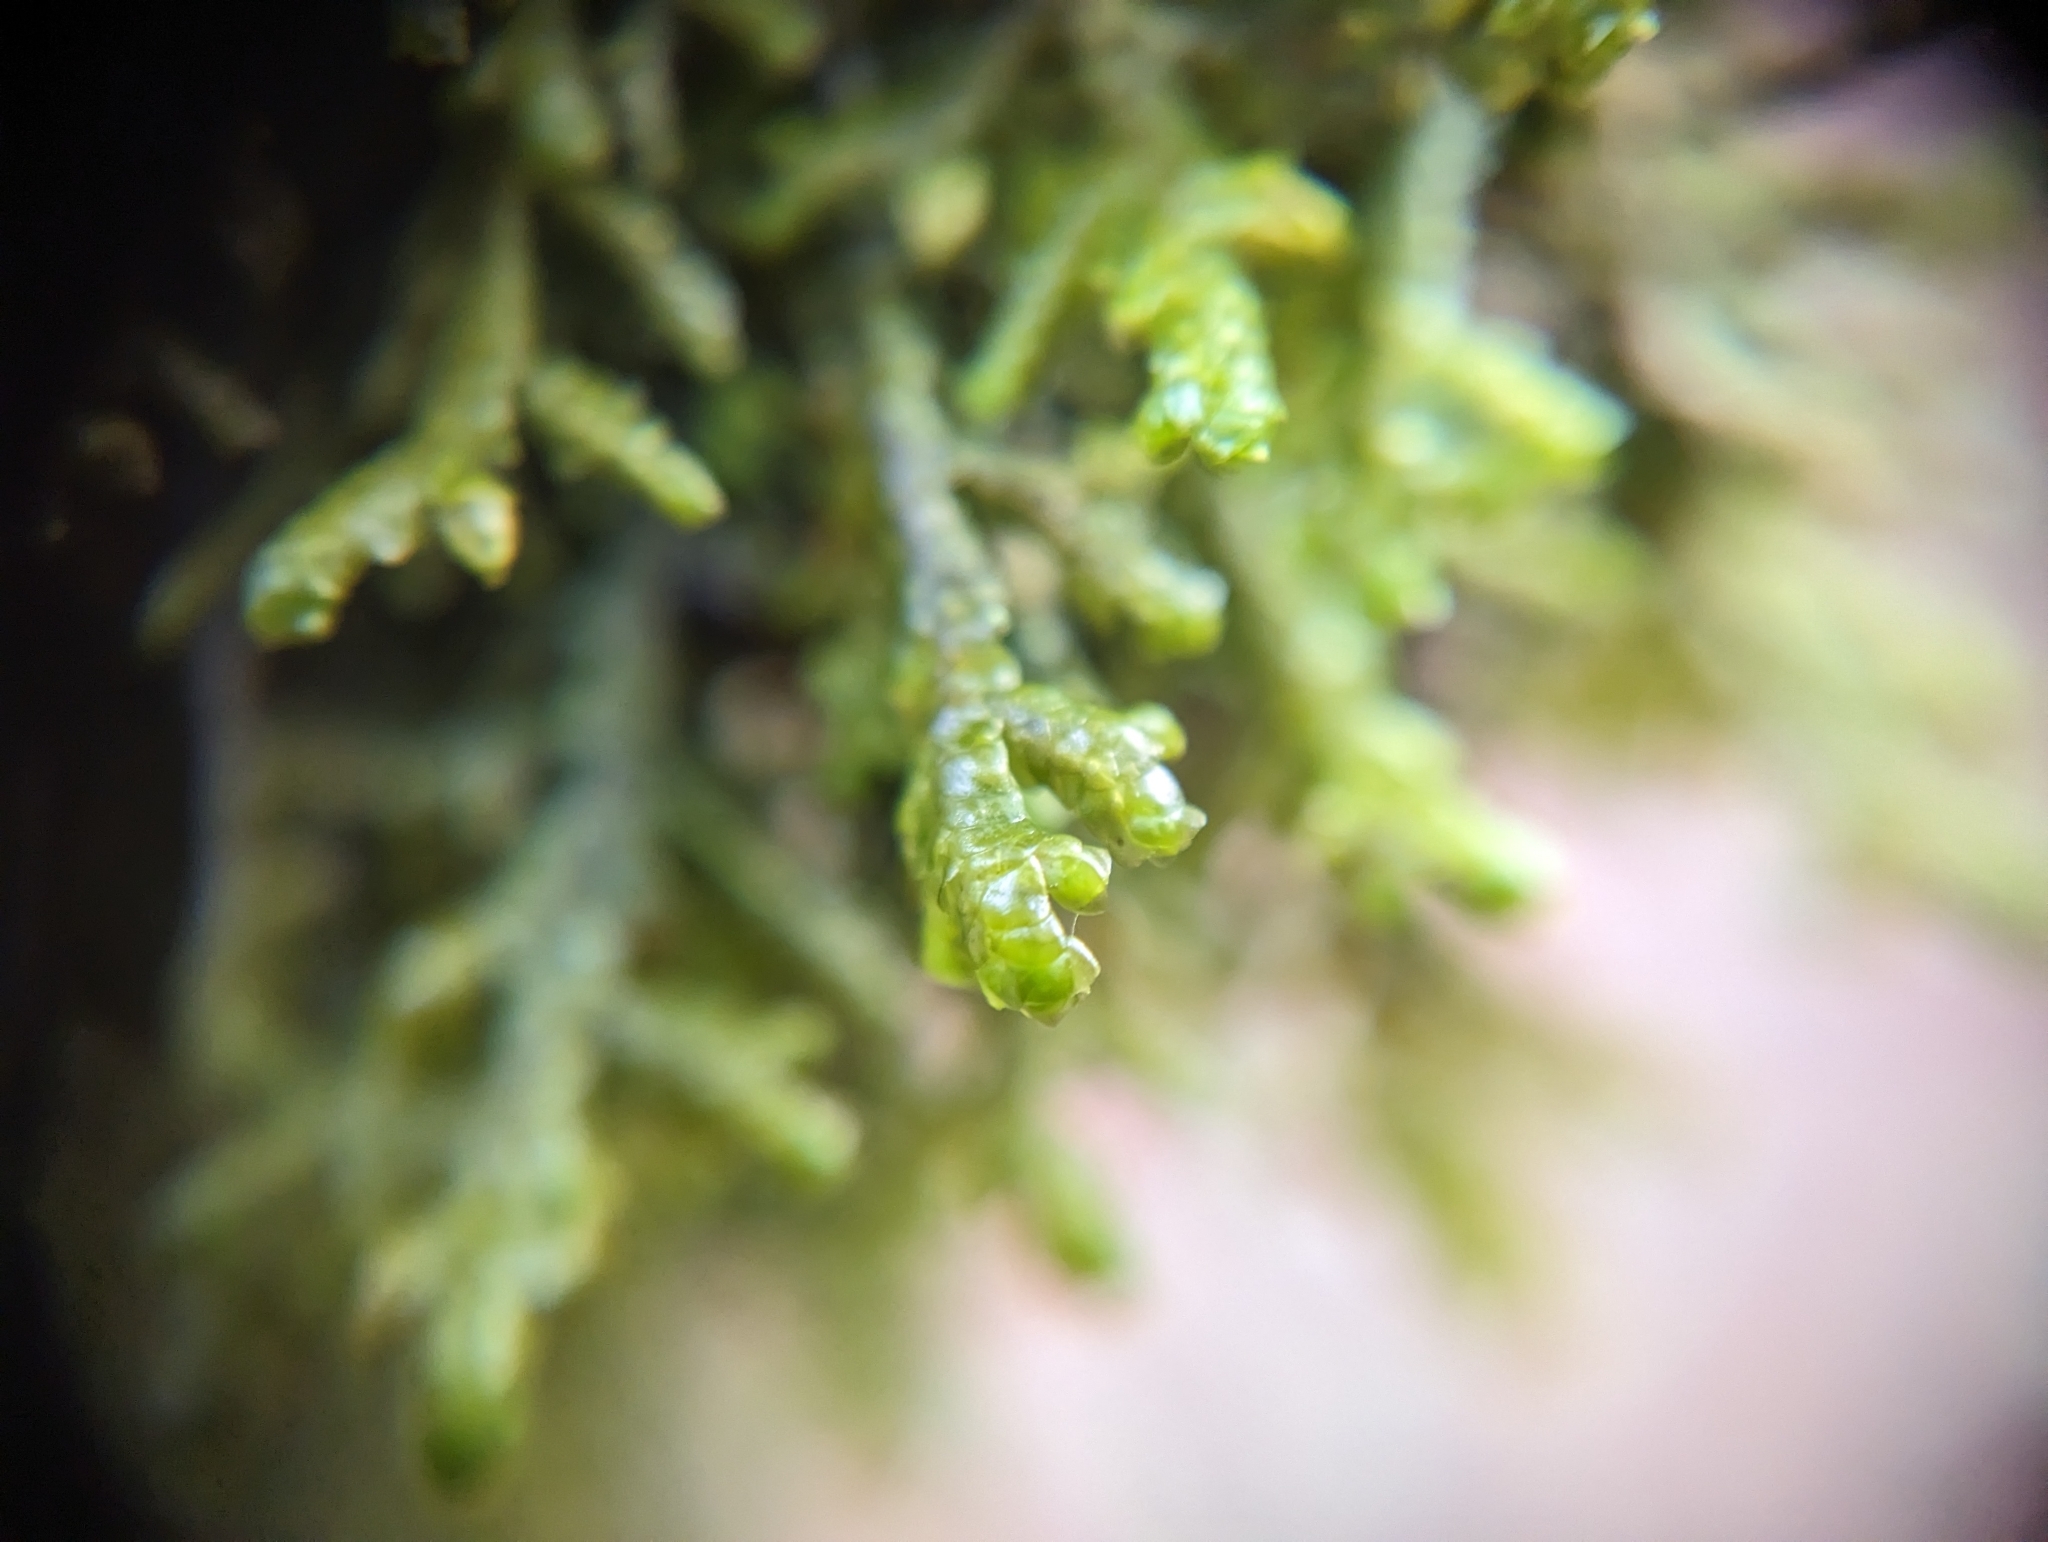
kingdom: Plantae
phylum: Marchantiophyta
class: Jungermanniopsida
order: Porellales
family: Porellaceae
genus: Porella
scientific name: Porella navicularis
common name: Tree ruffle liverwort
